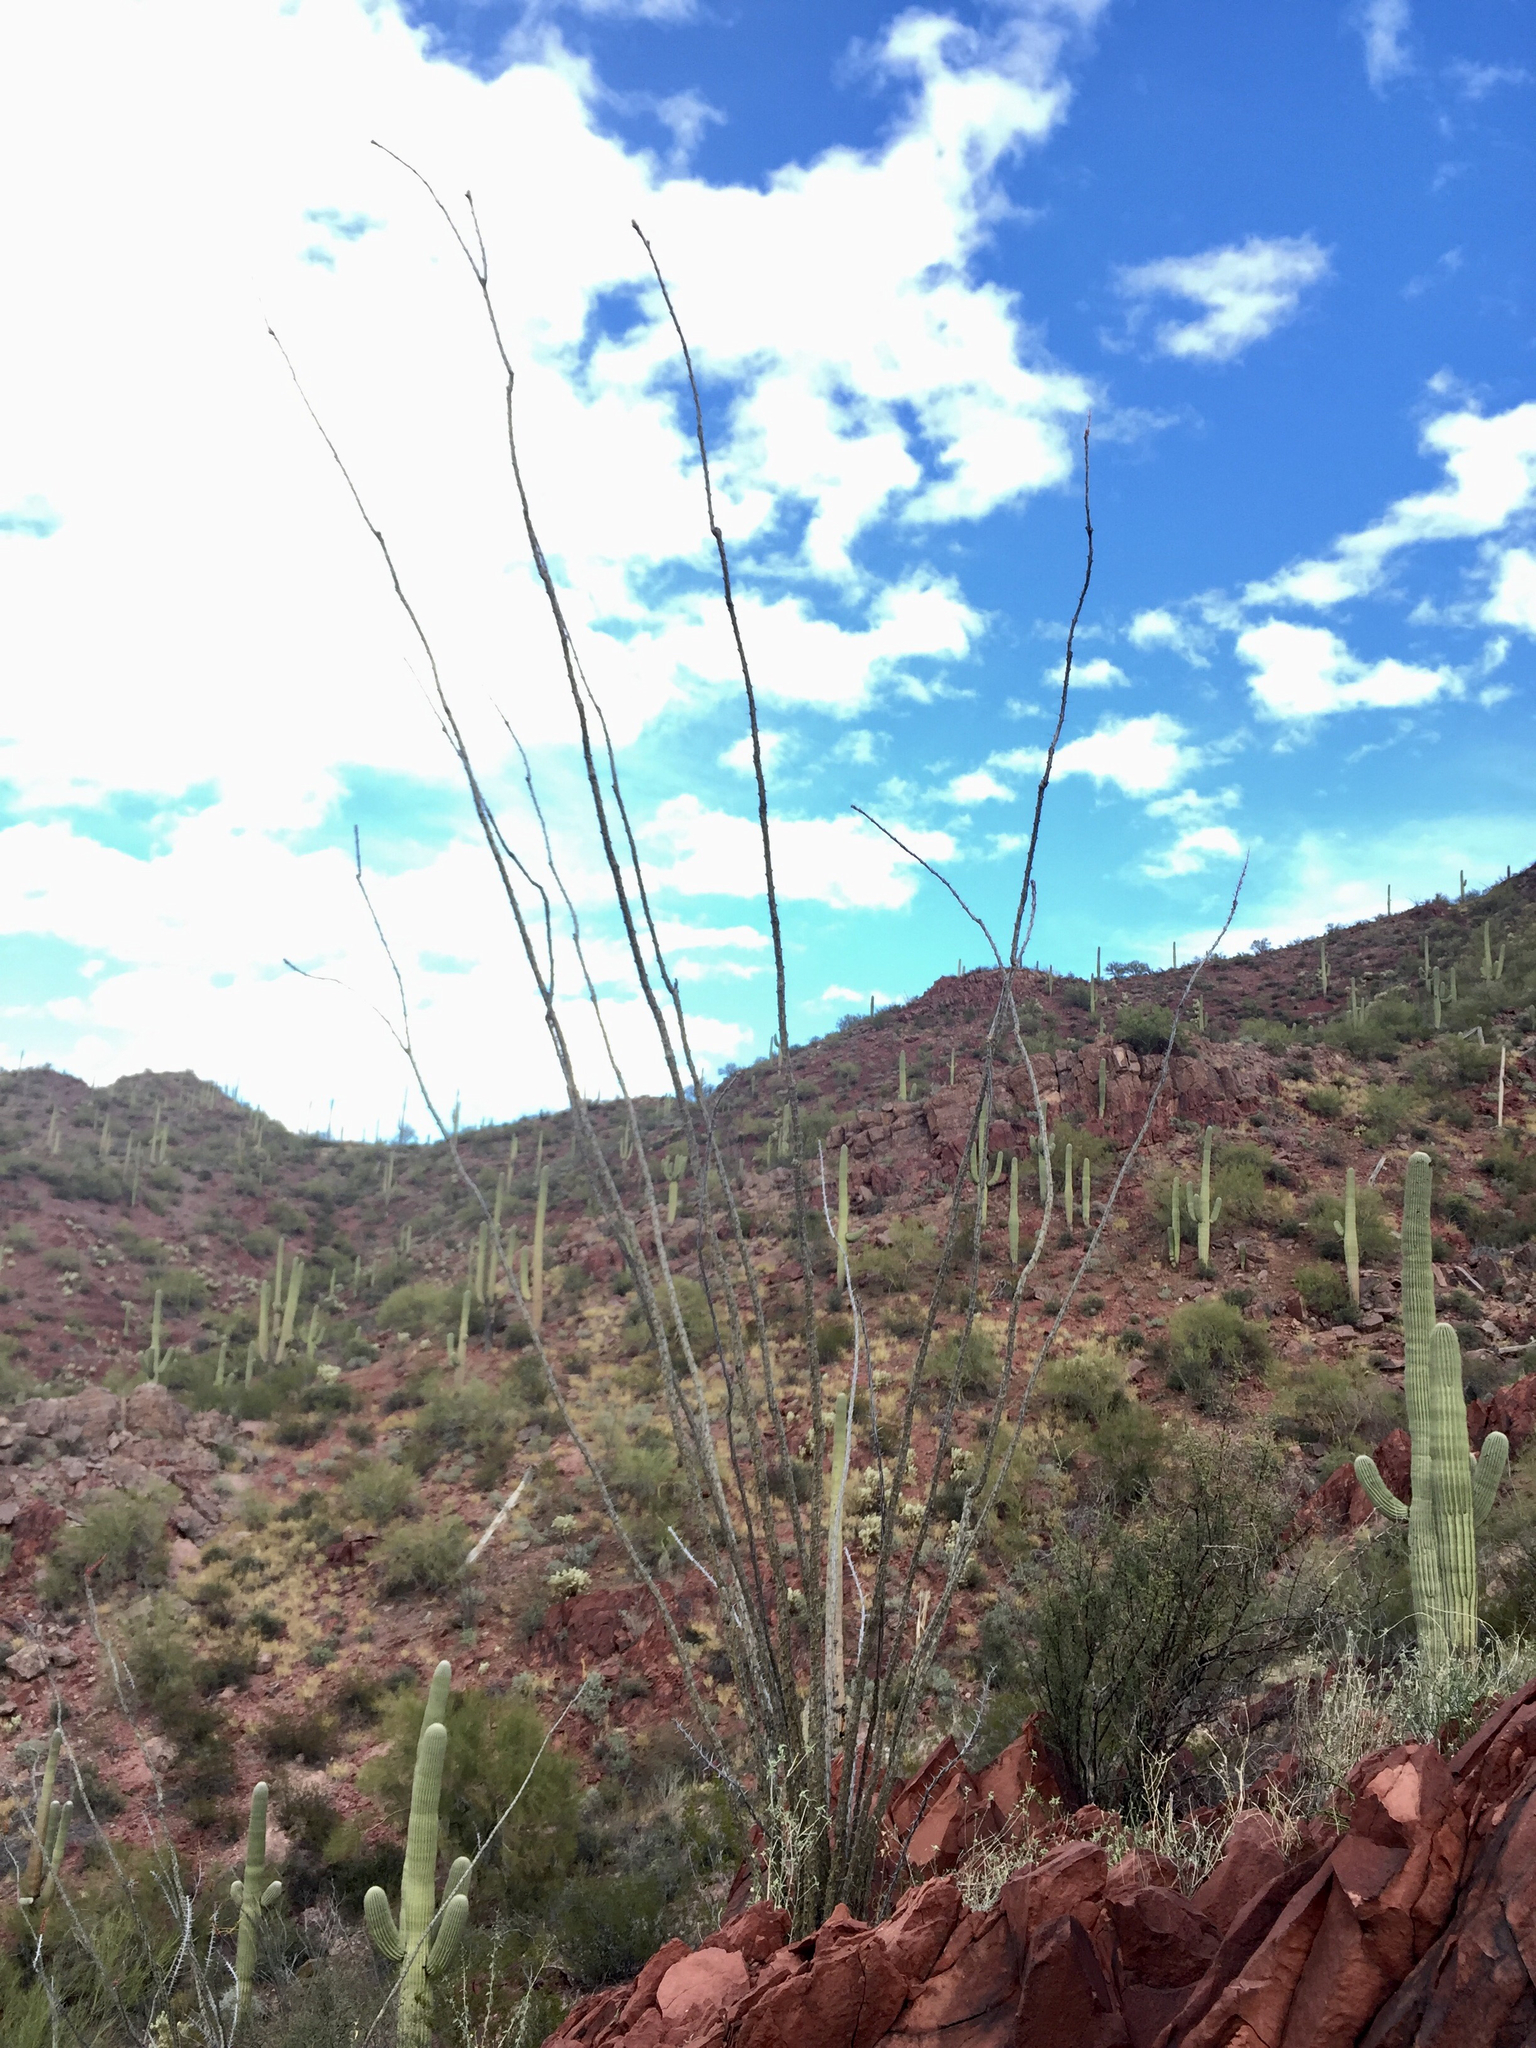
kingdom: Plantae
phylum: Tracheophyta
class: Magnoliopsida
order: Ericales
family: Fouquieriaceae
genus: Fouquieria
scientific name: Fouquieria splendens
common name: Vine-cactus
